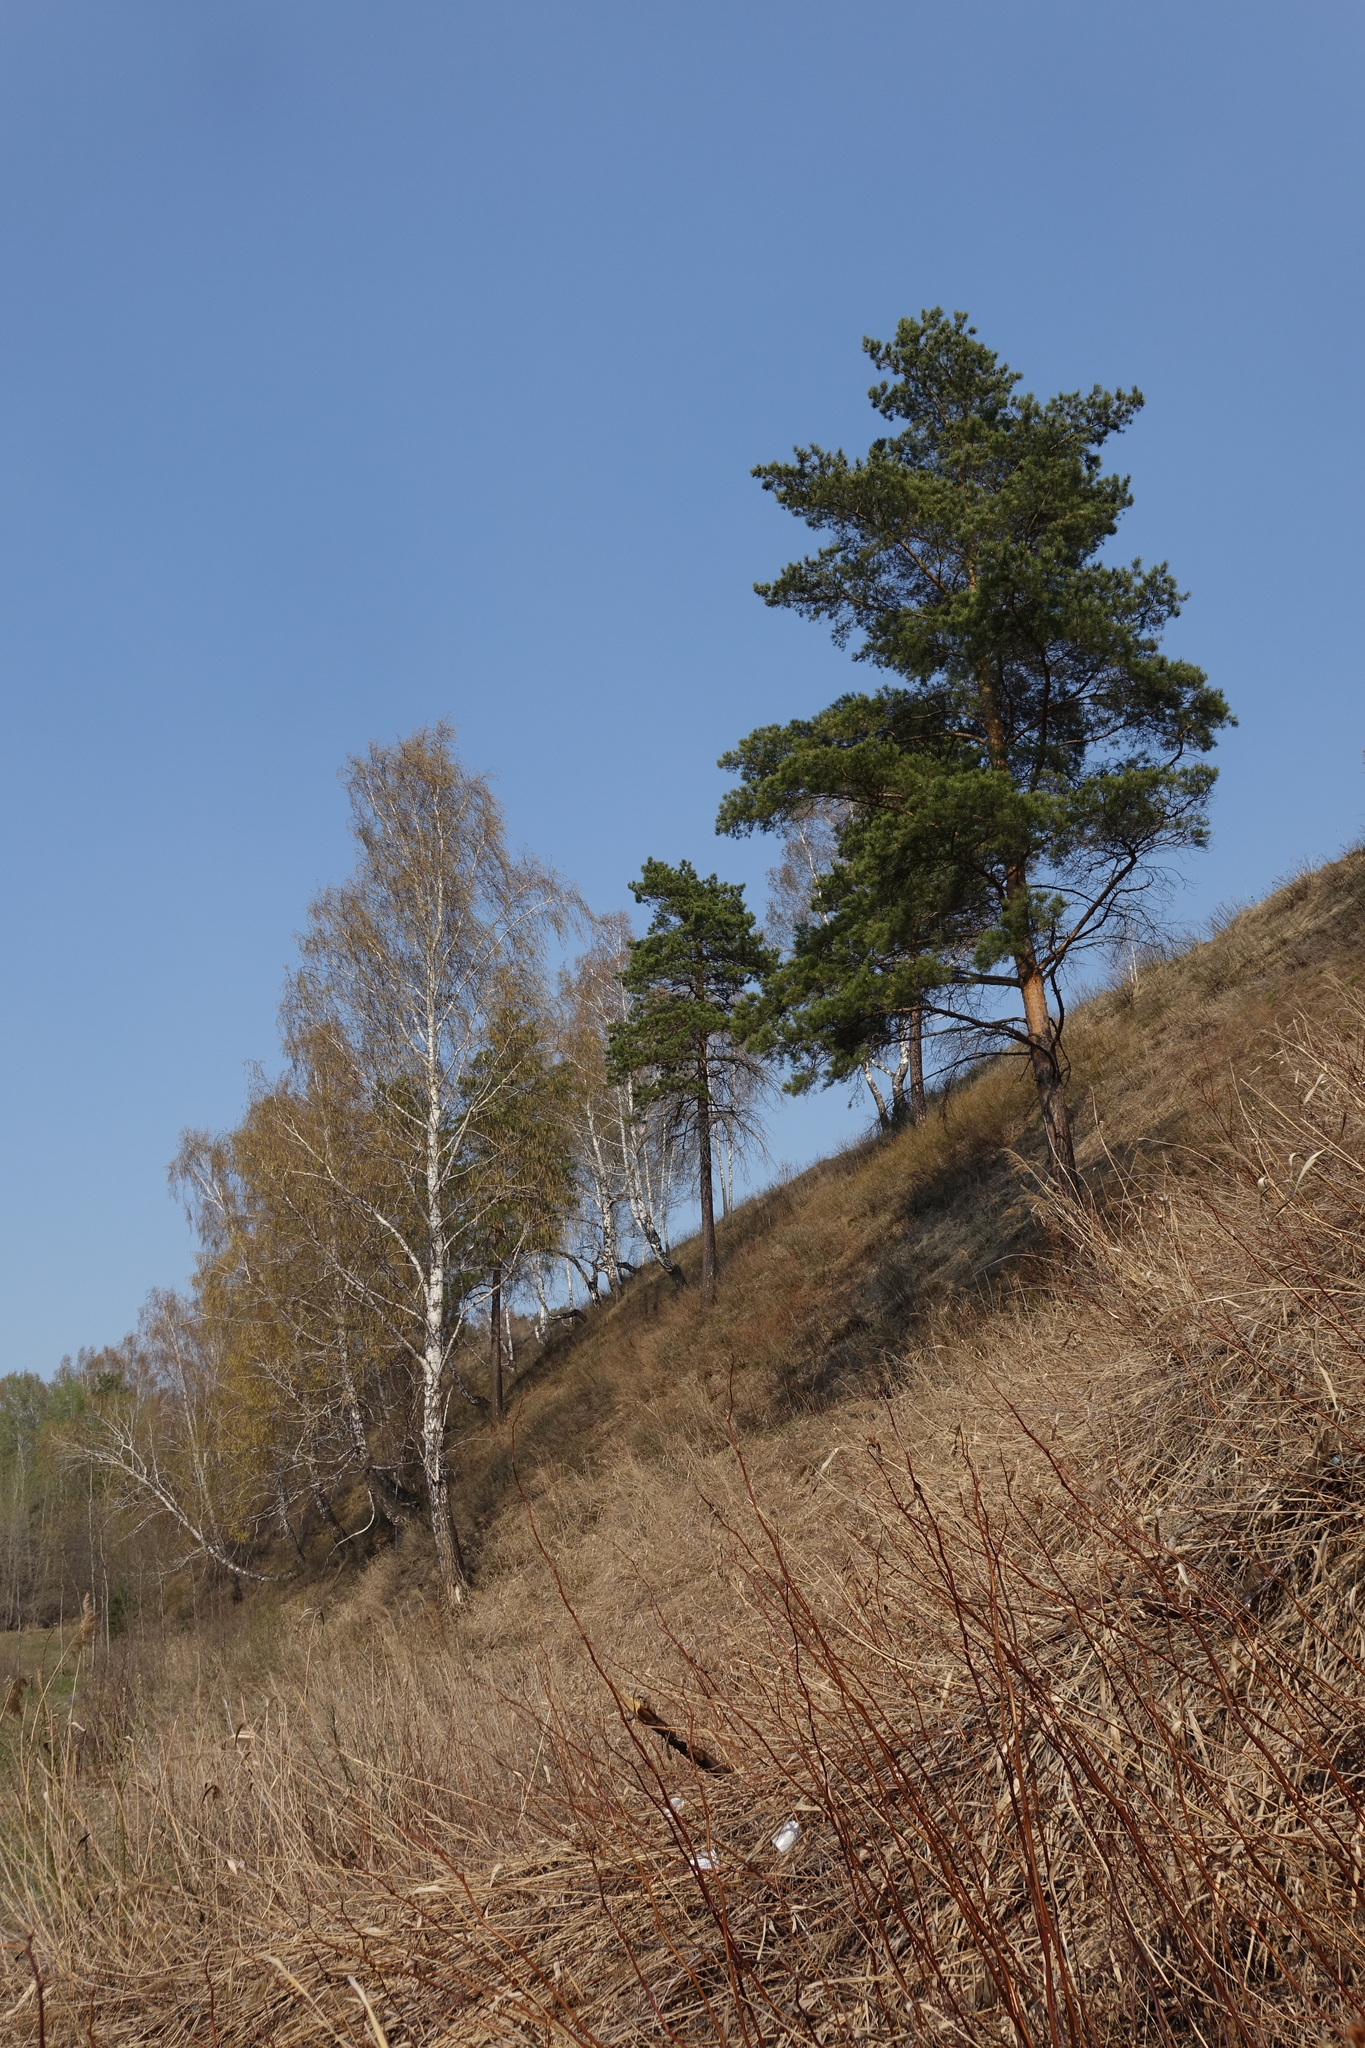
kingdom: Plantae
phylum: Tracheophyta
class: Pinopsida
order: Pinales
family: Pinaceae
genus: Pinus
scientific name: Pinus sylvestris
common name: Scots pine
